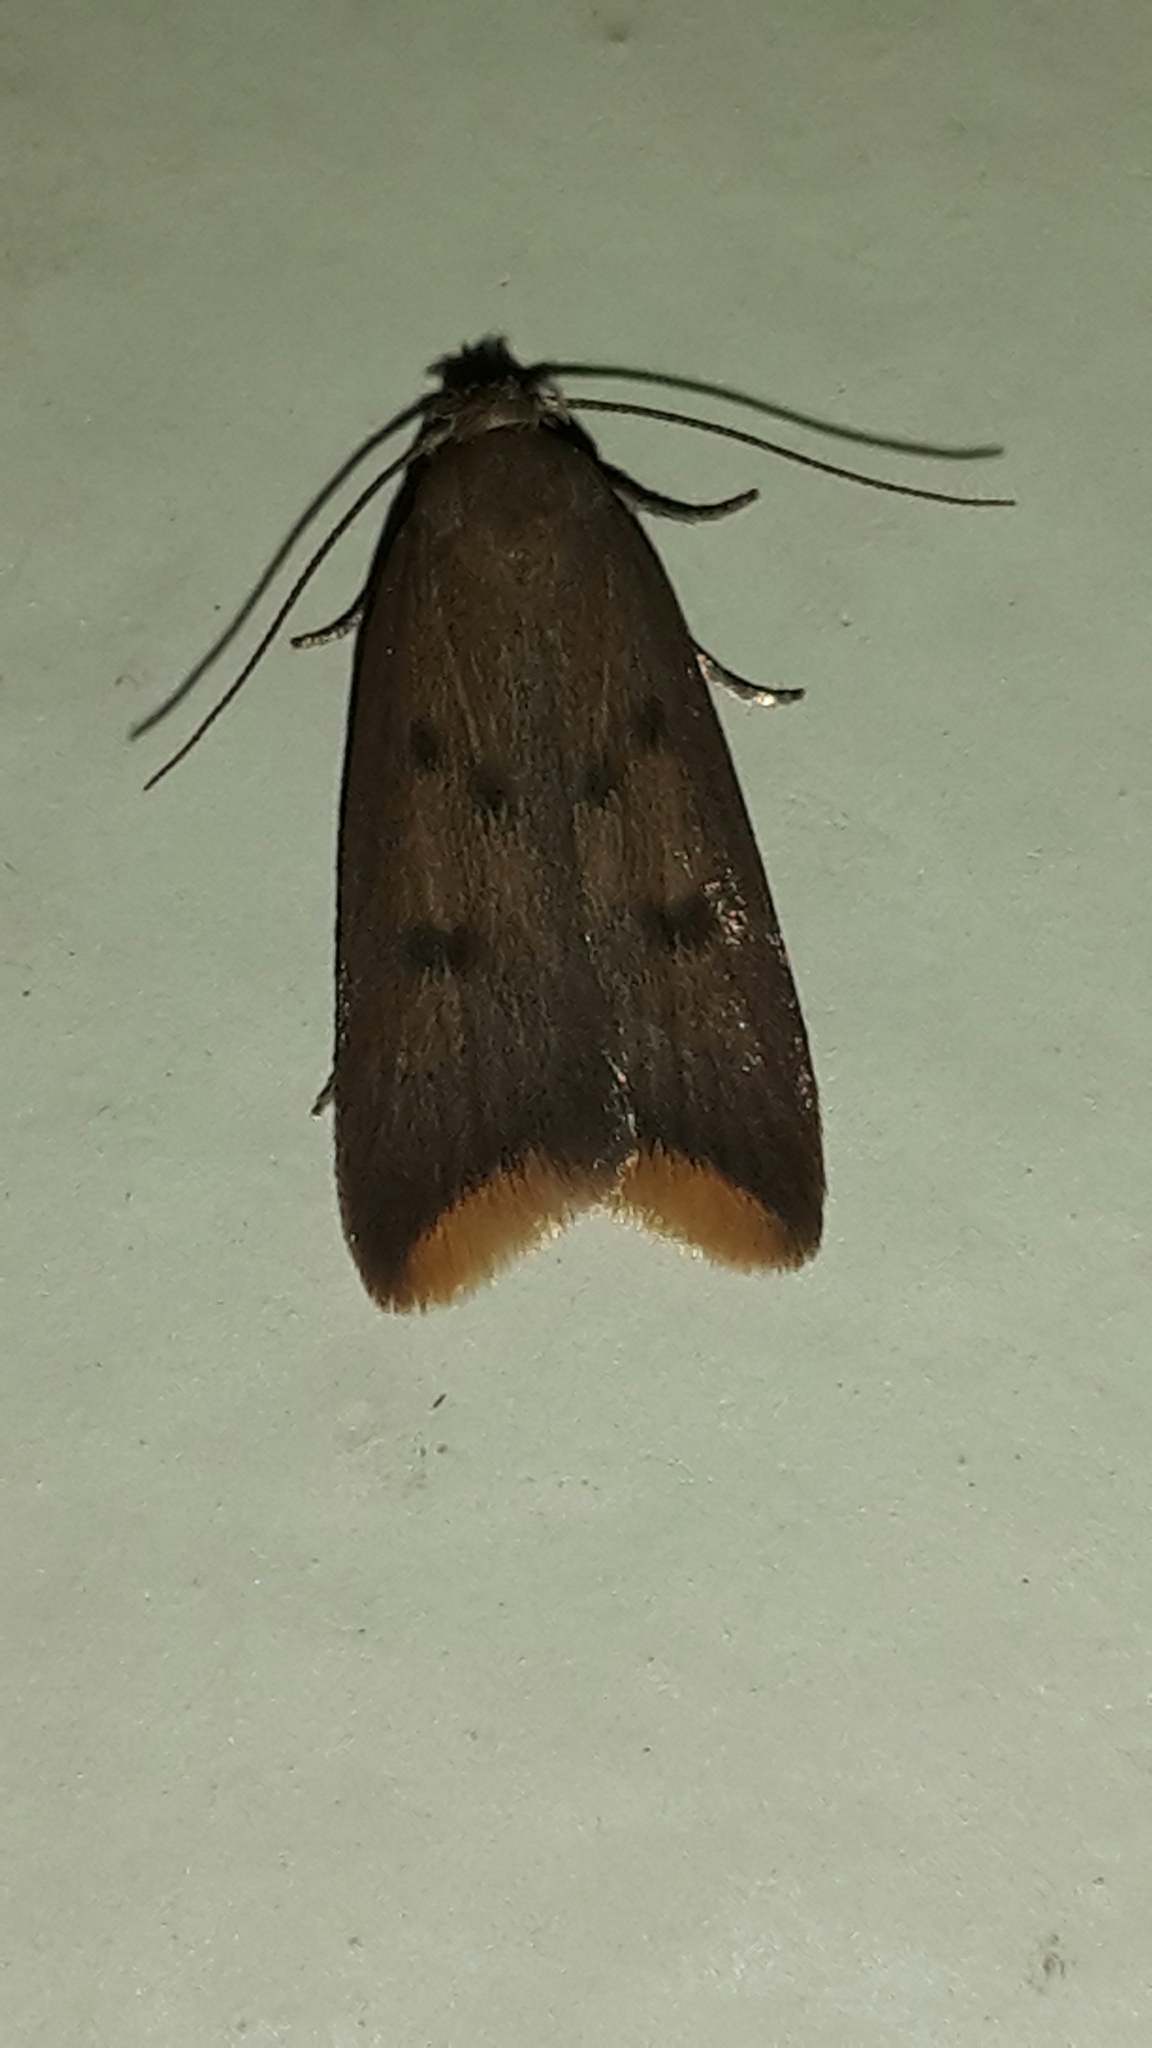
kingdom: Animalia
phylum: Arthropoda
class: Insecta
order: Lepidoptera
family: Oecophoridae
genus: Tachystola
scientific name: Tachystola acroxantha
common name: Ruddy streak
